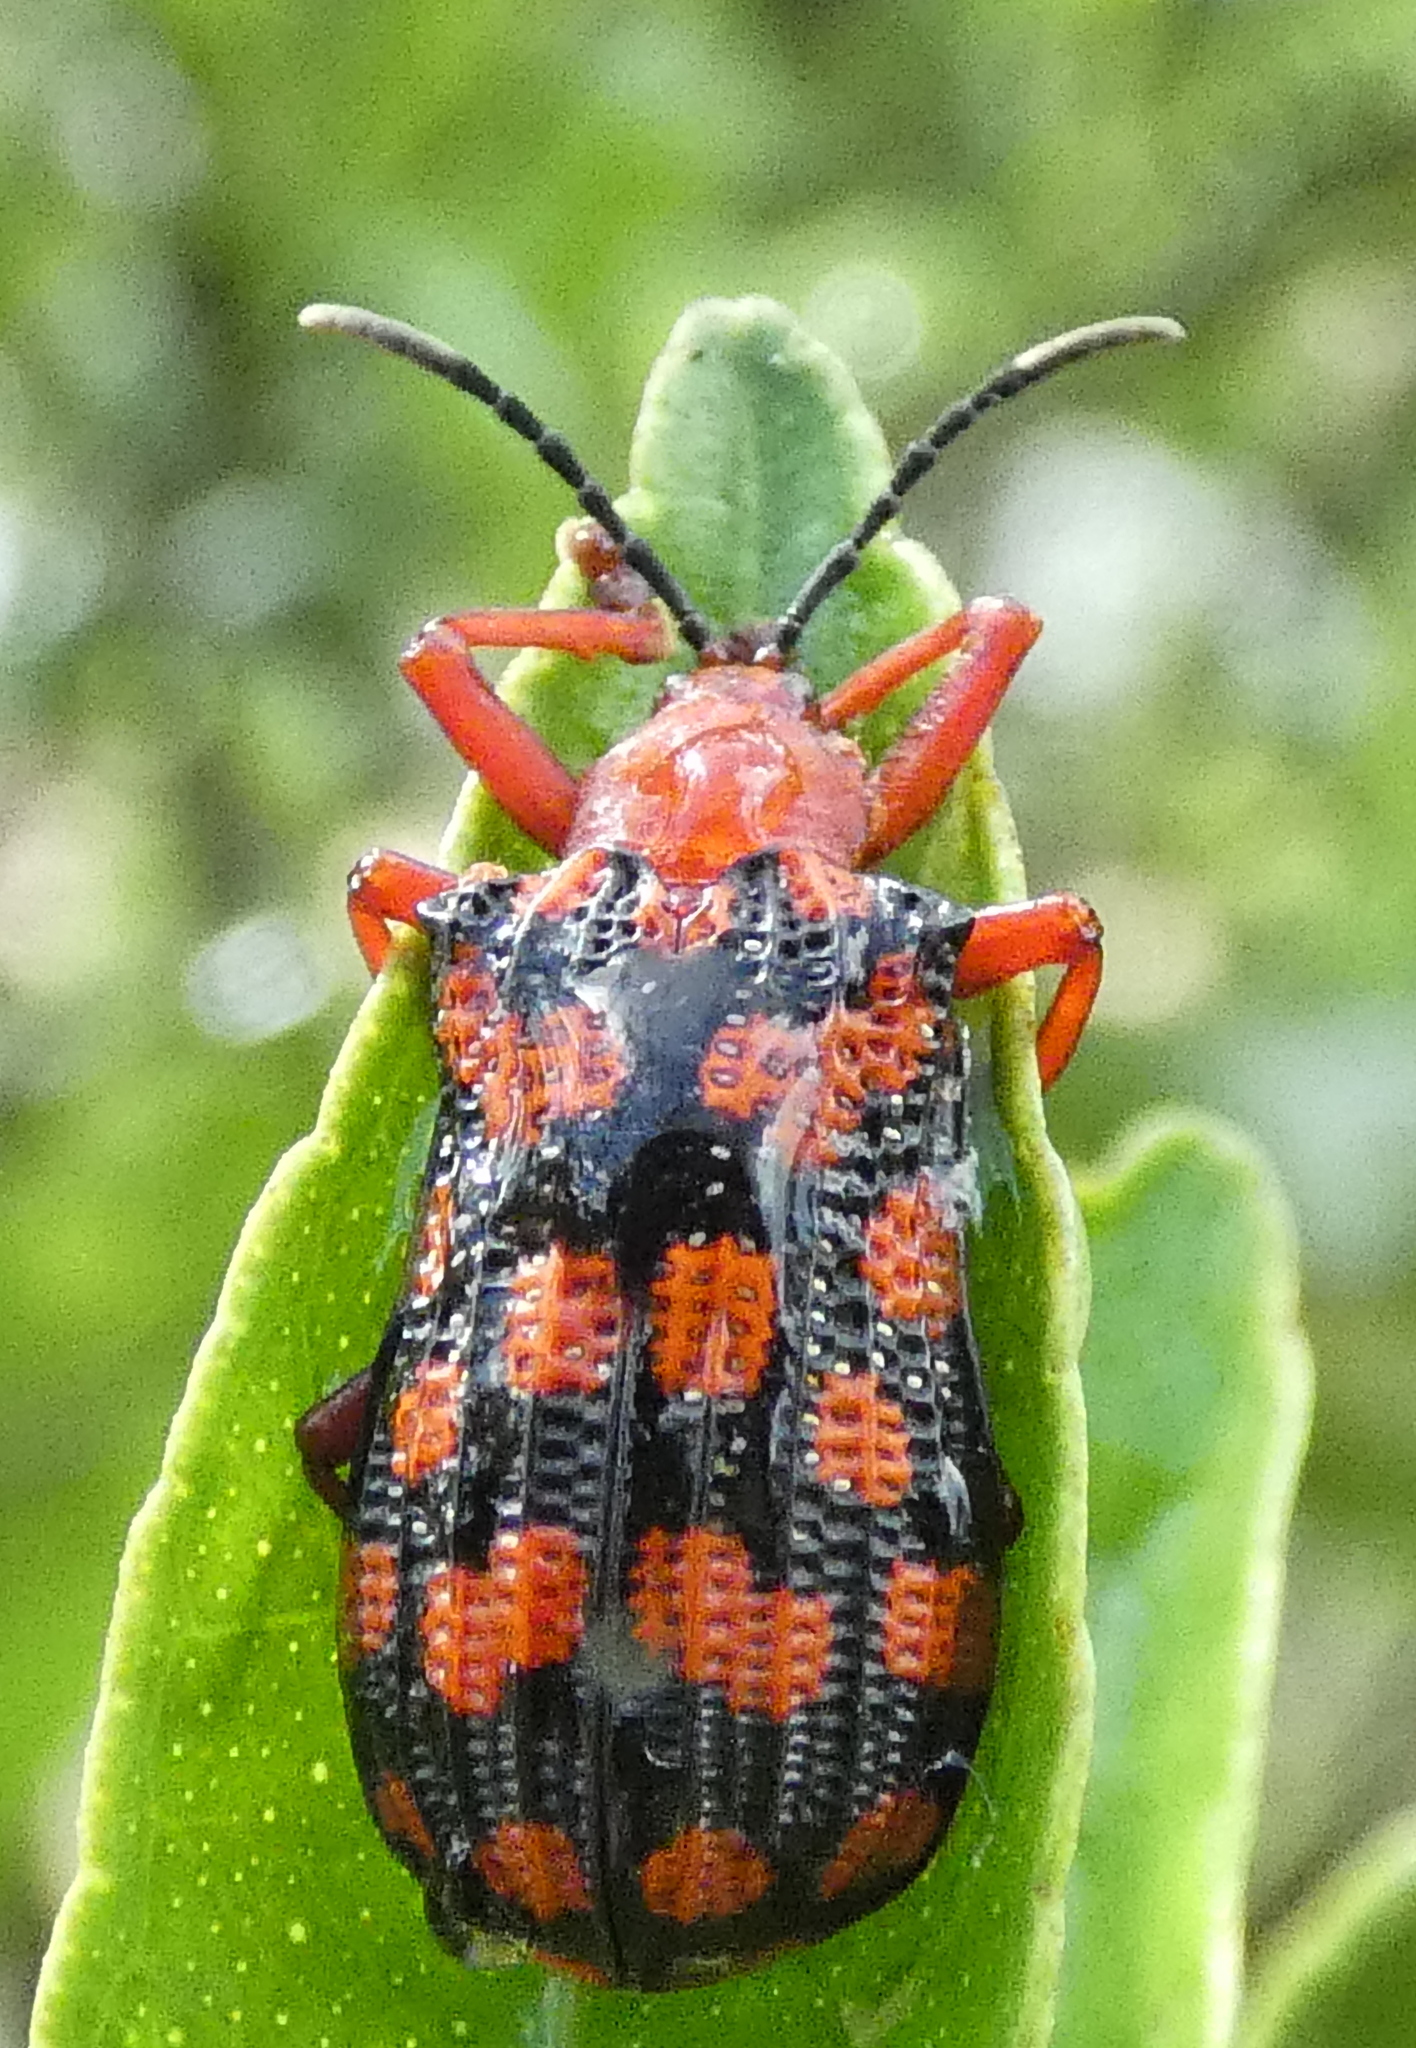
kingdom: Animalia
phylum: Arthropoda
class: Insecta
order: Coleoptera
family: Chrysomelidae
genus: Sceloenopla
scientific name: Sceloenopla maculata
